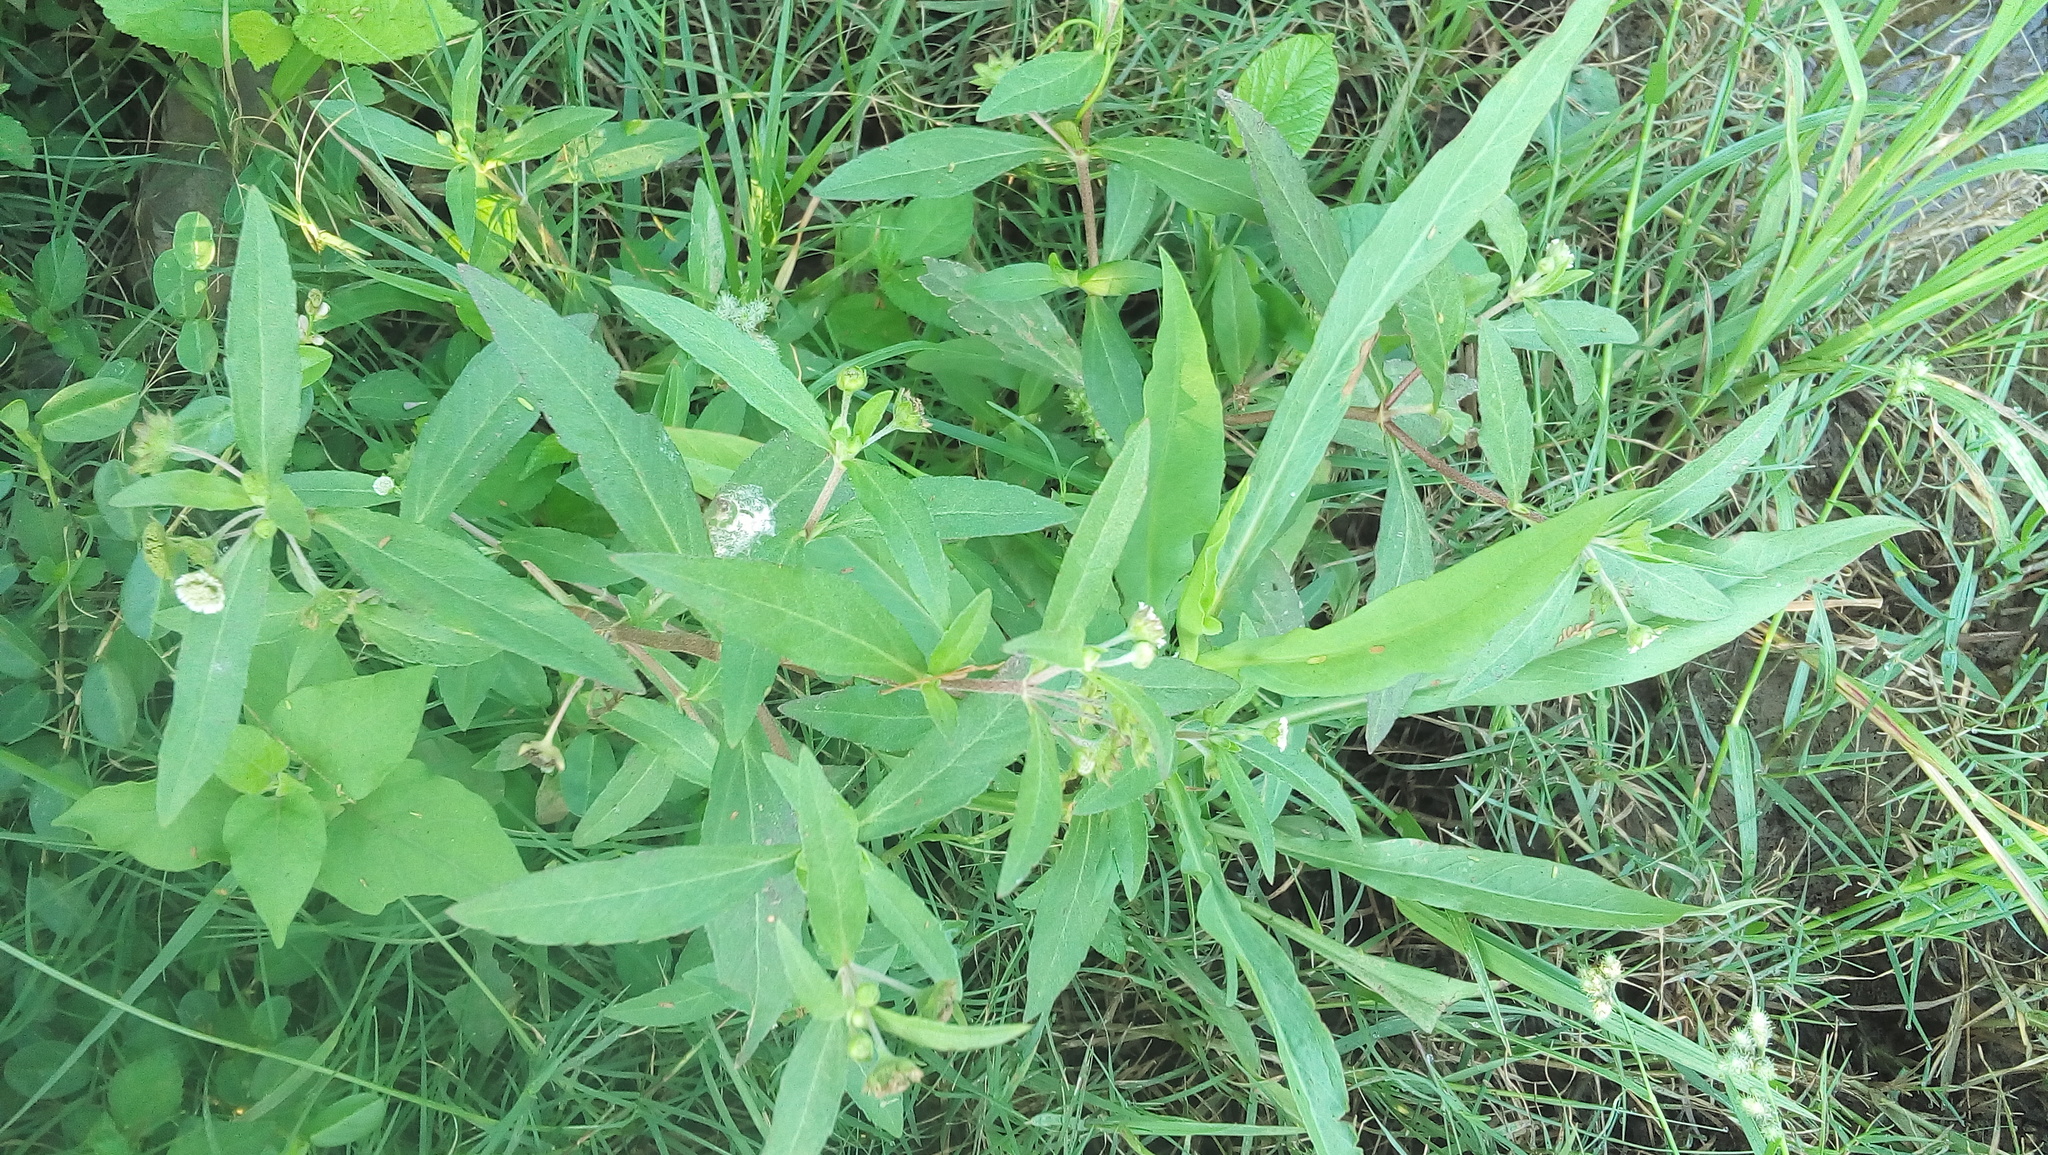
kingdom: Plantae
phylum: Tracheophyta
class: Magnoliopsida
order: Asterales
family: Asteraceae
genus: Eclipta
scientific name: Eclipta prostrata
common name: False daisy
